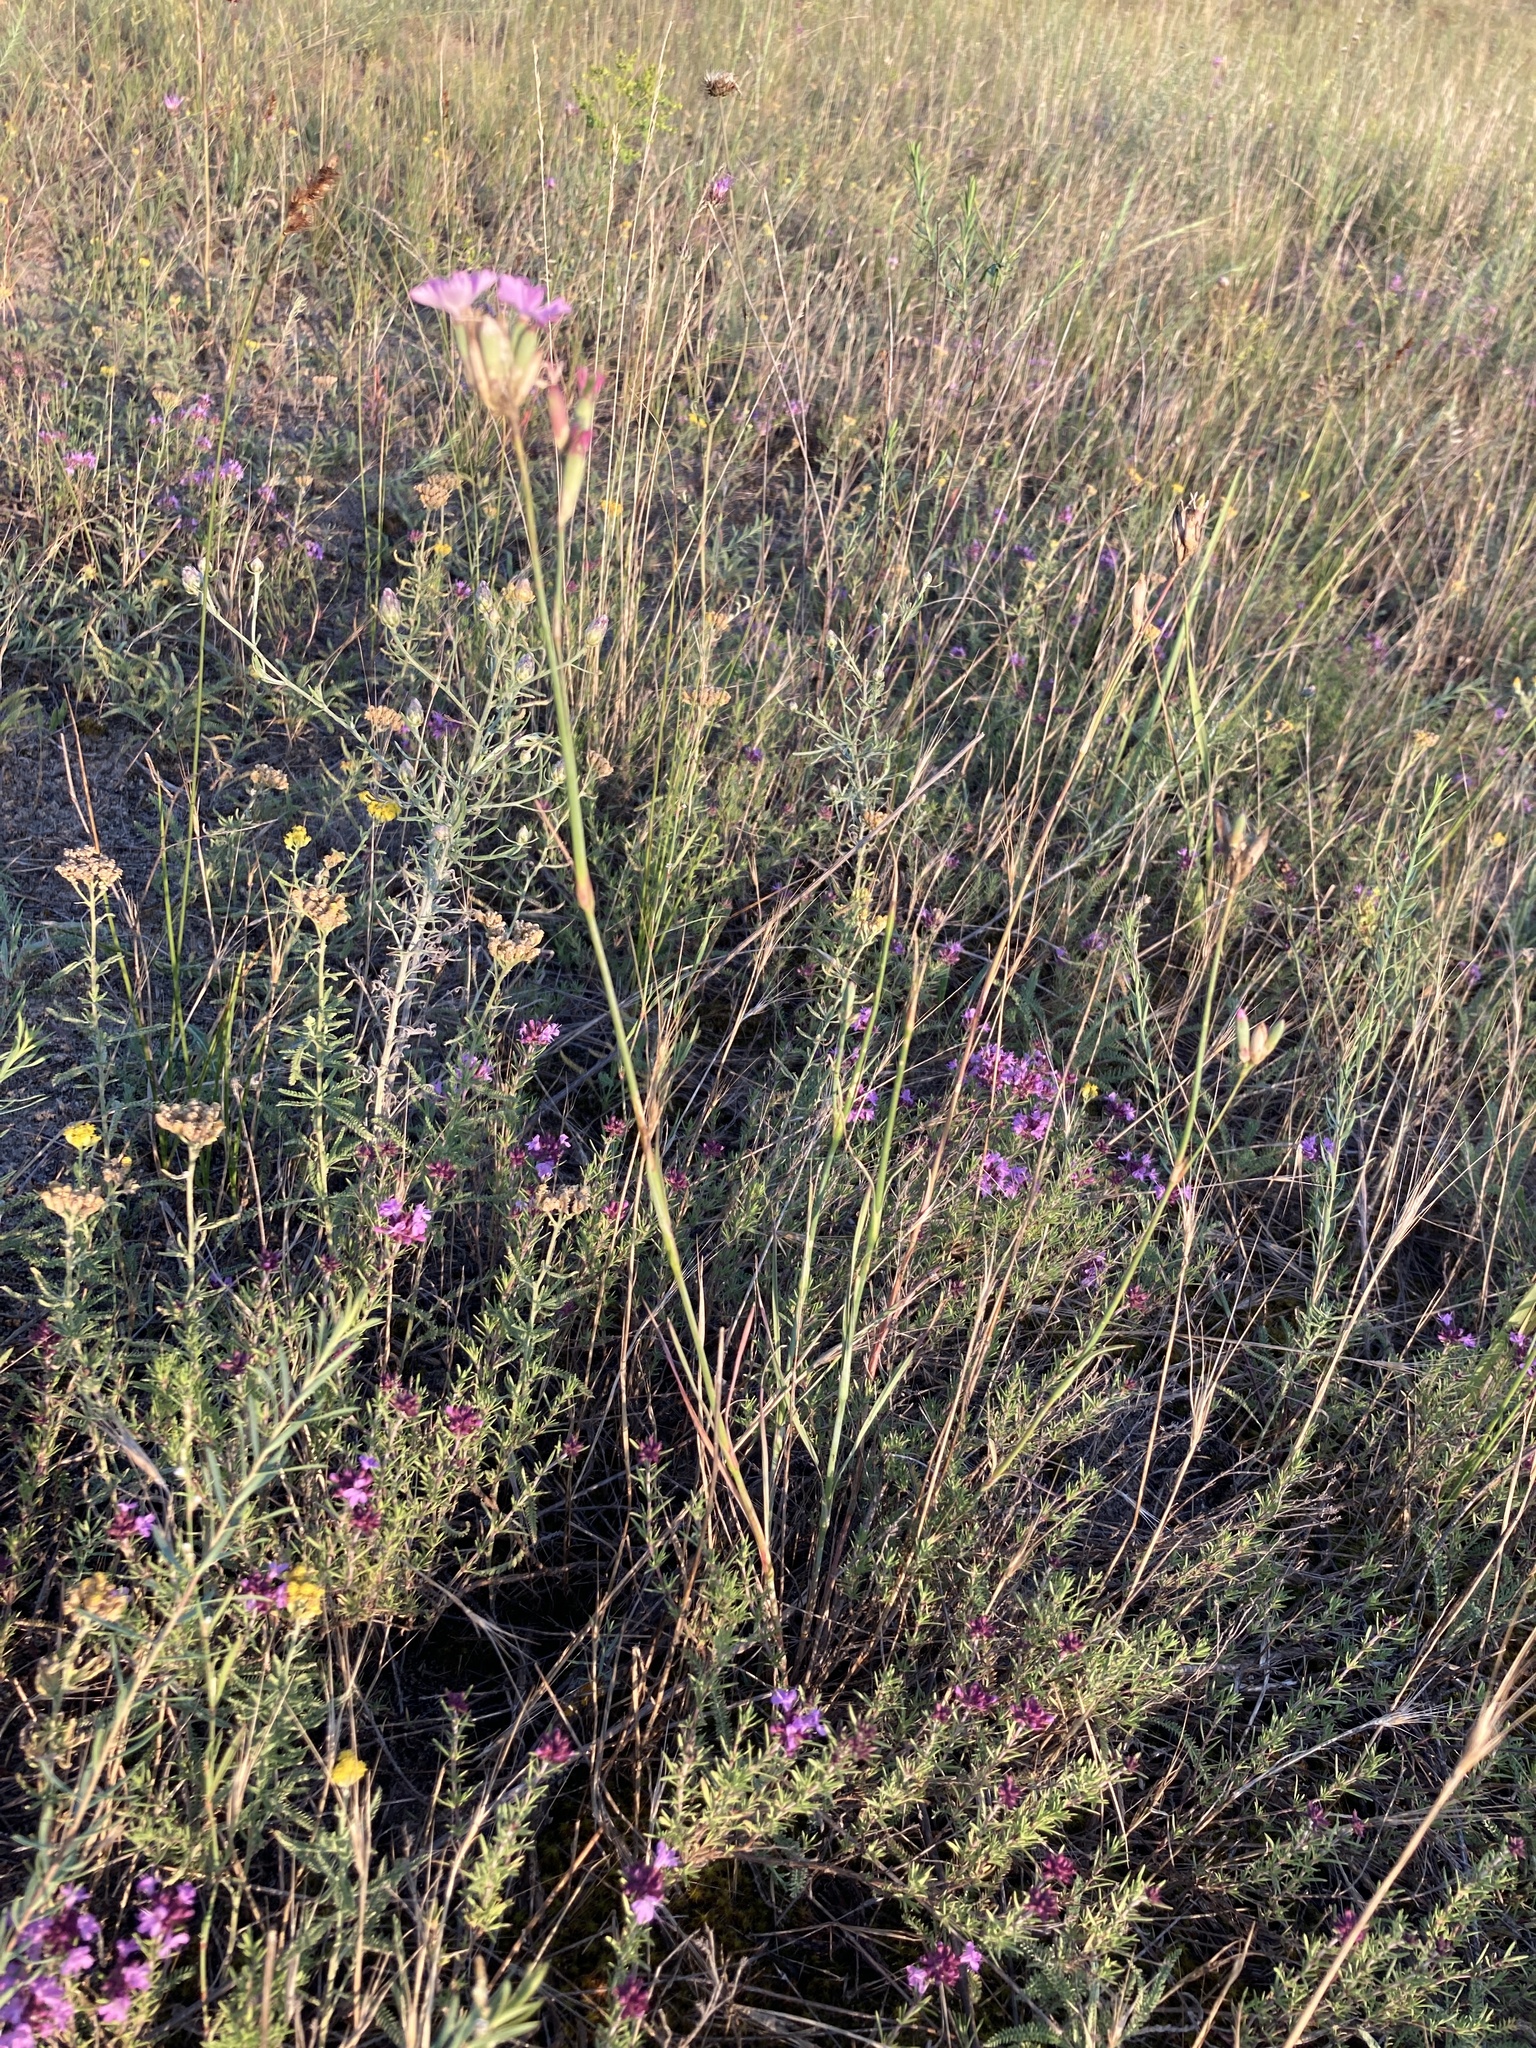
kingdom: Plantae
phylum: Tracheophyta
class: Magnoliopsida
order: Caryophyllales
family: Caryophyllaceae
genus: Dianthus
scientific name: Dianthus borbasii
